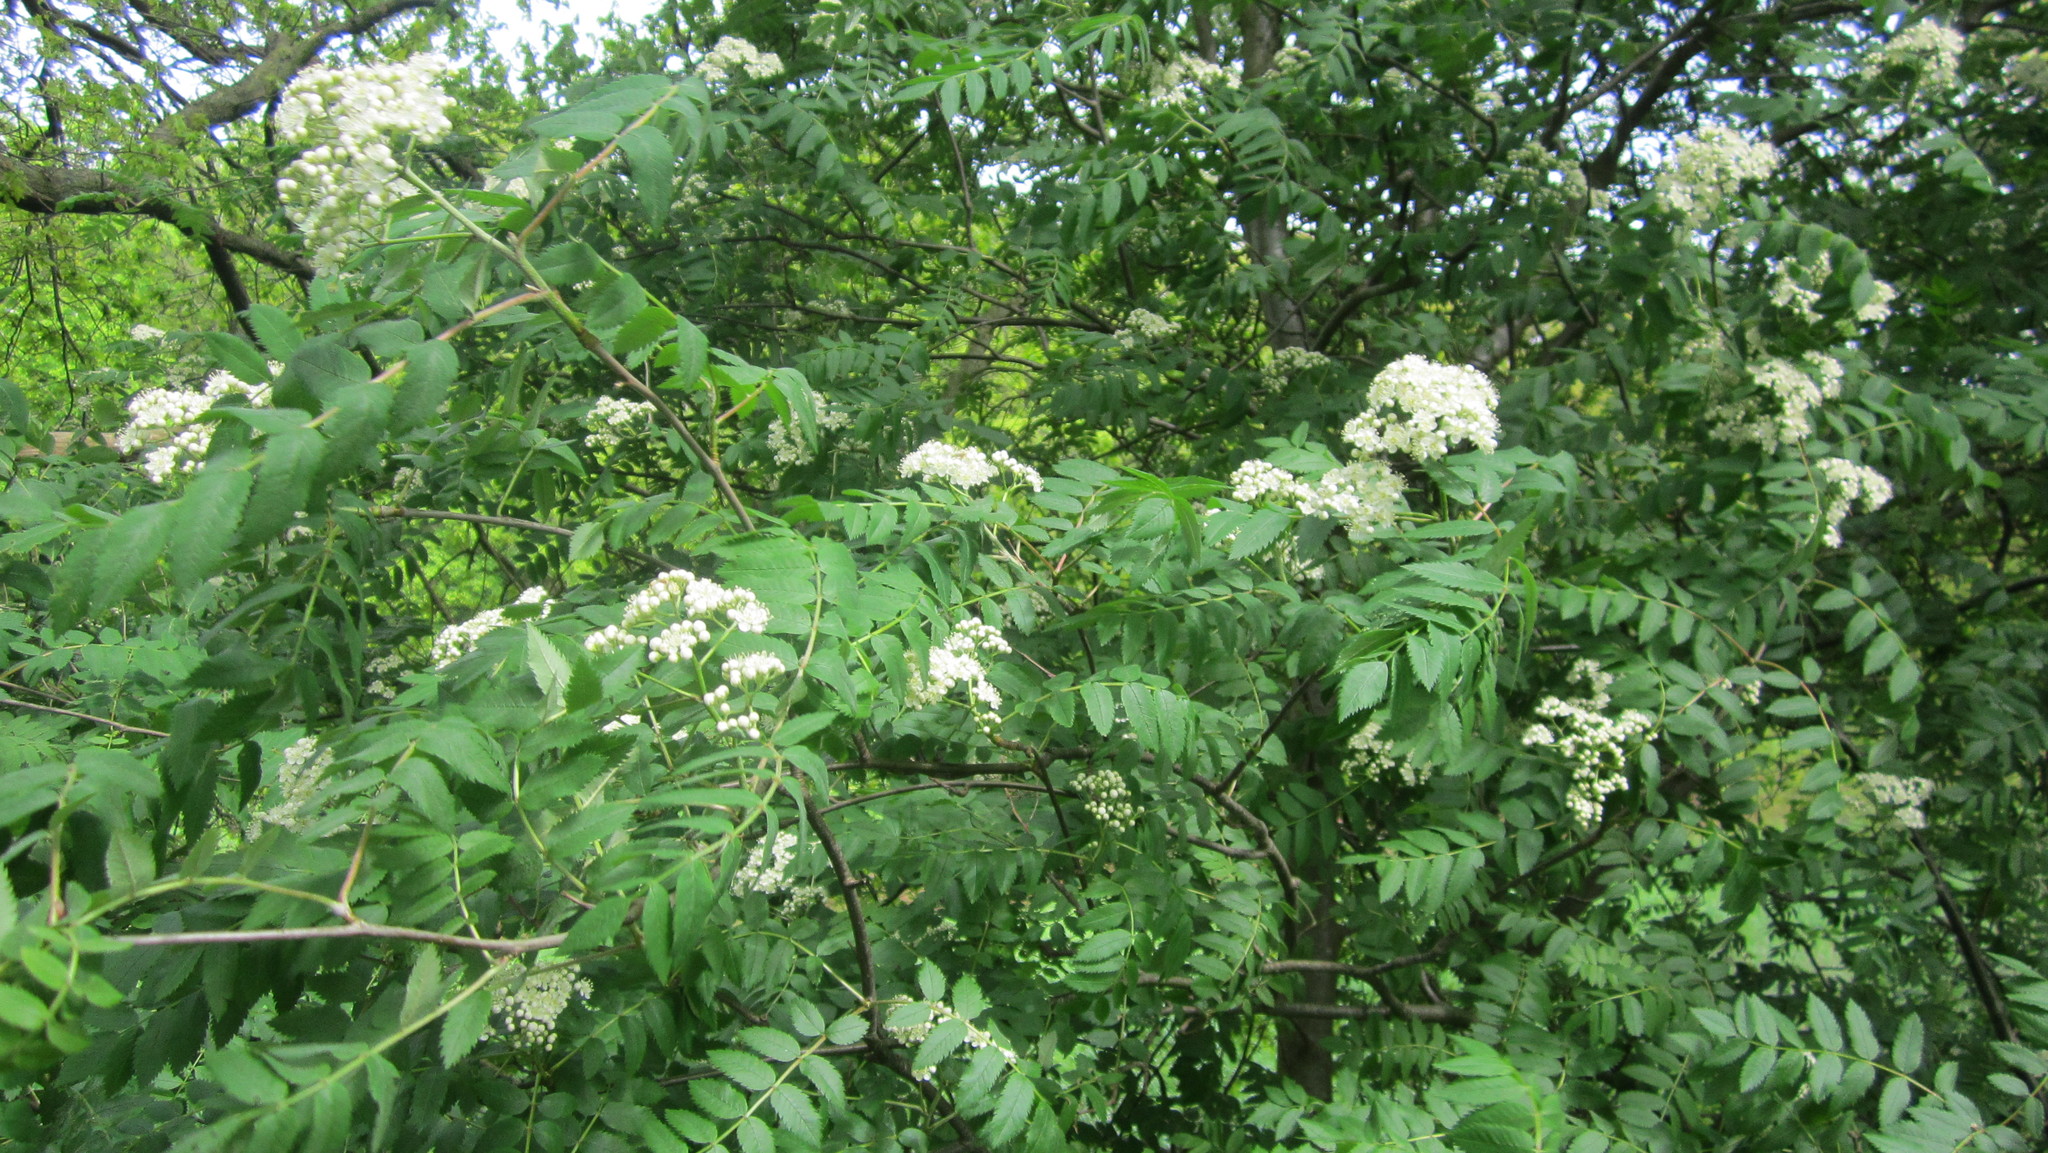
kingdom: Plantae
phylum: Tracheophyta
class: Magnoliopsida
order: Rosales
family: Rosaceae
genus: Sorbus
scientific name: Sorbus aucuparia
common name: Rowan
